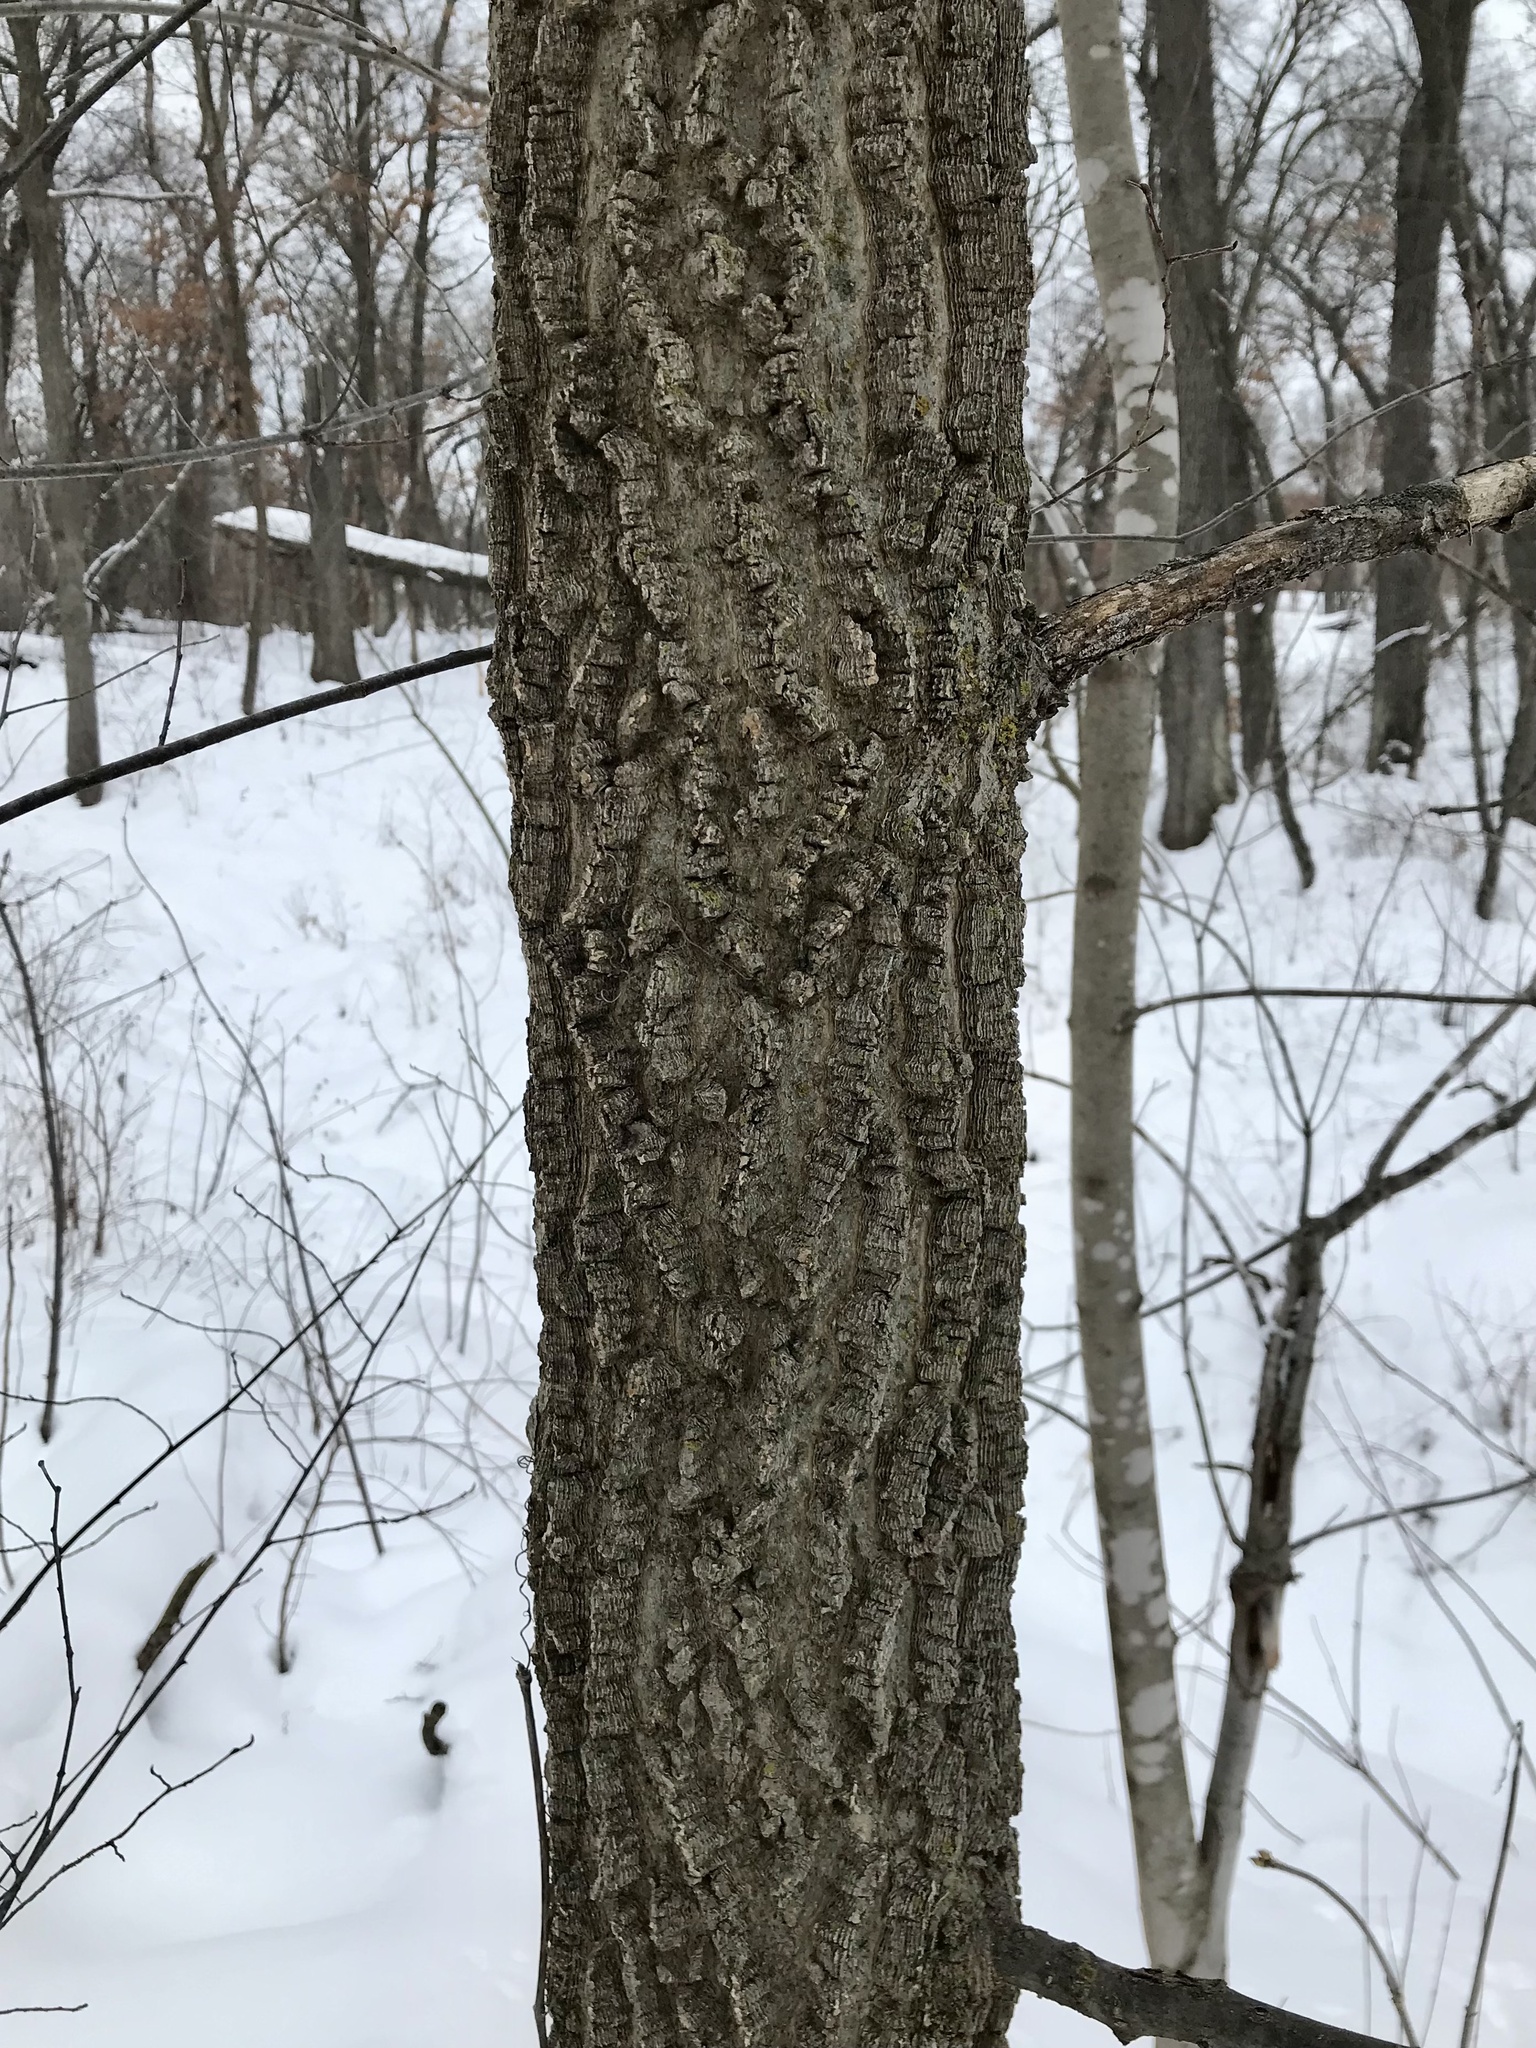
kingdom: Plantae
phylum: Tracheophyta
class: Magnoliopsida
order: Rosales
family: Cannabaceae
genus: Celtis
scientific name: Celtis occidentalis
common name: Common hackberry
